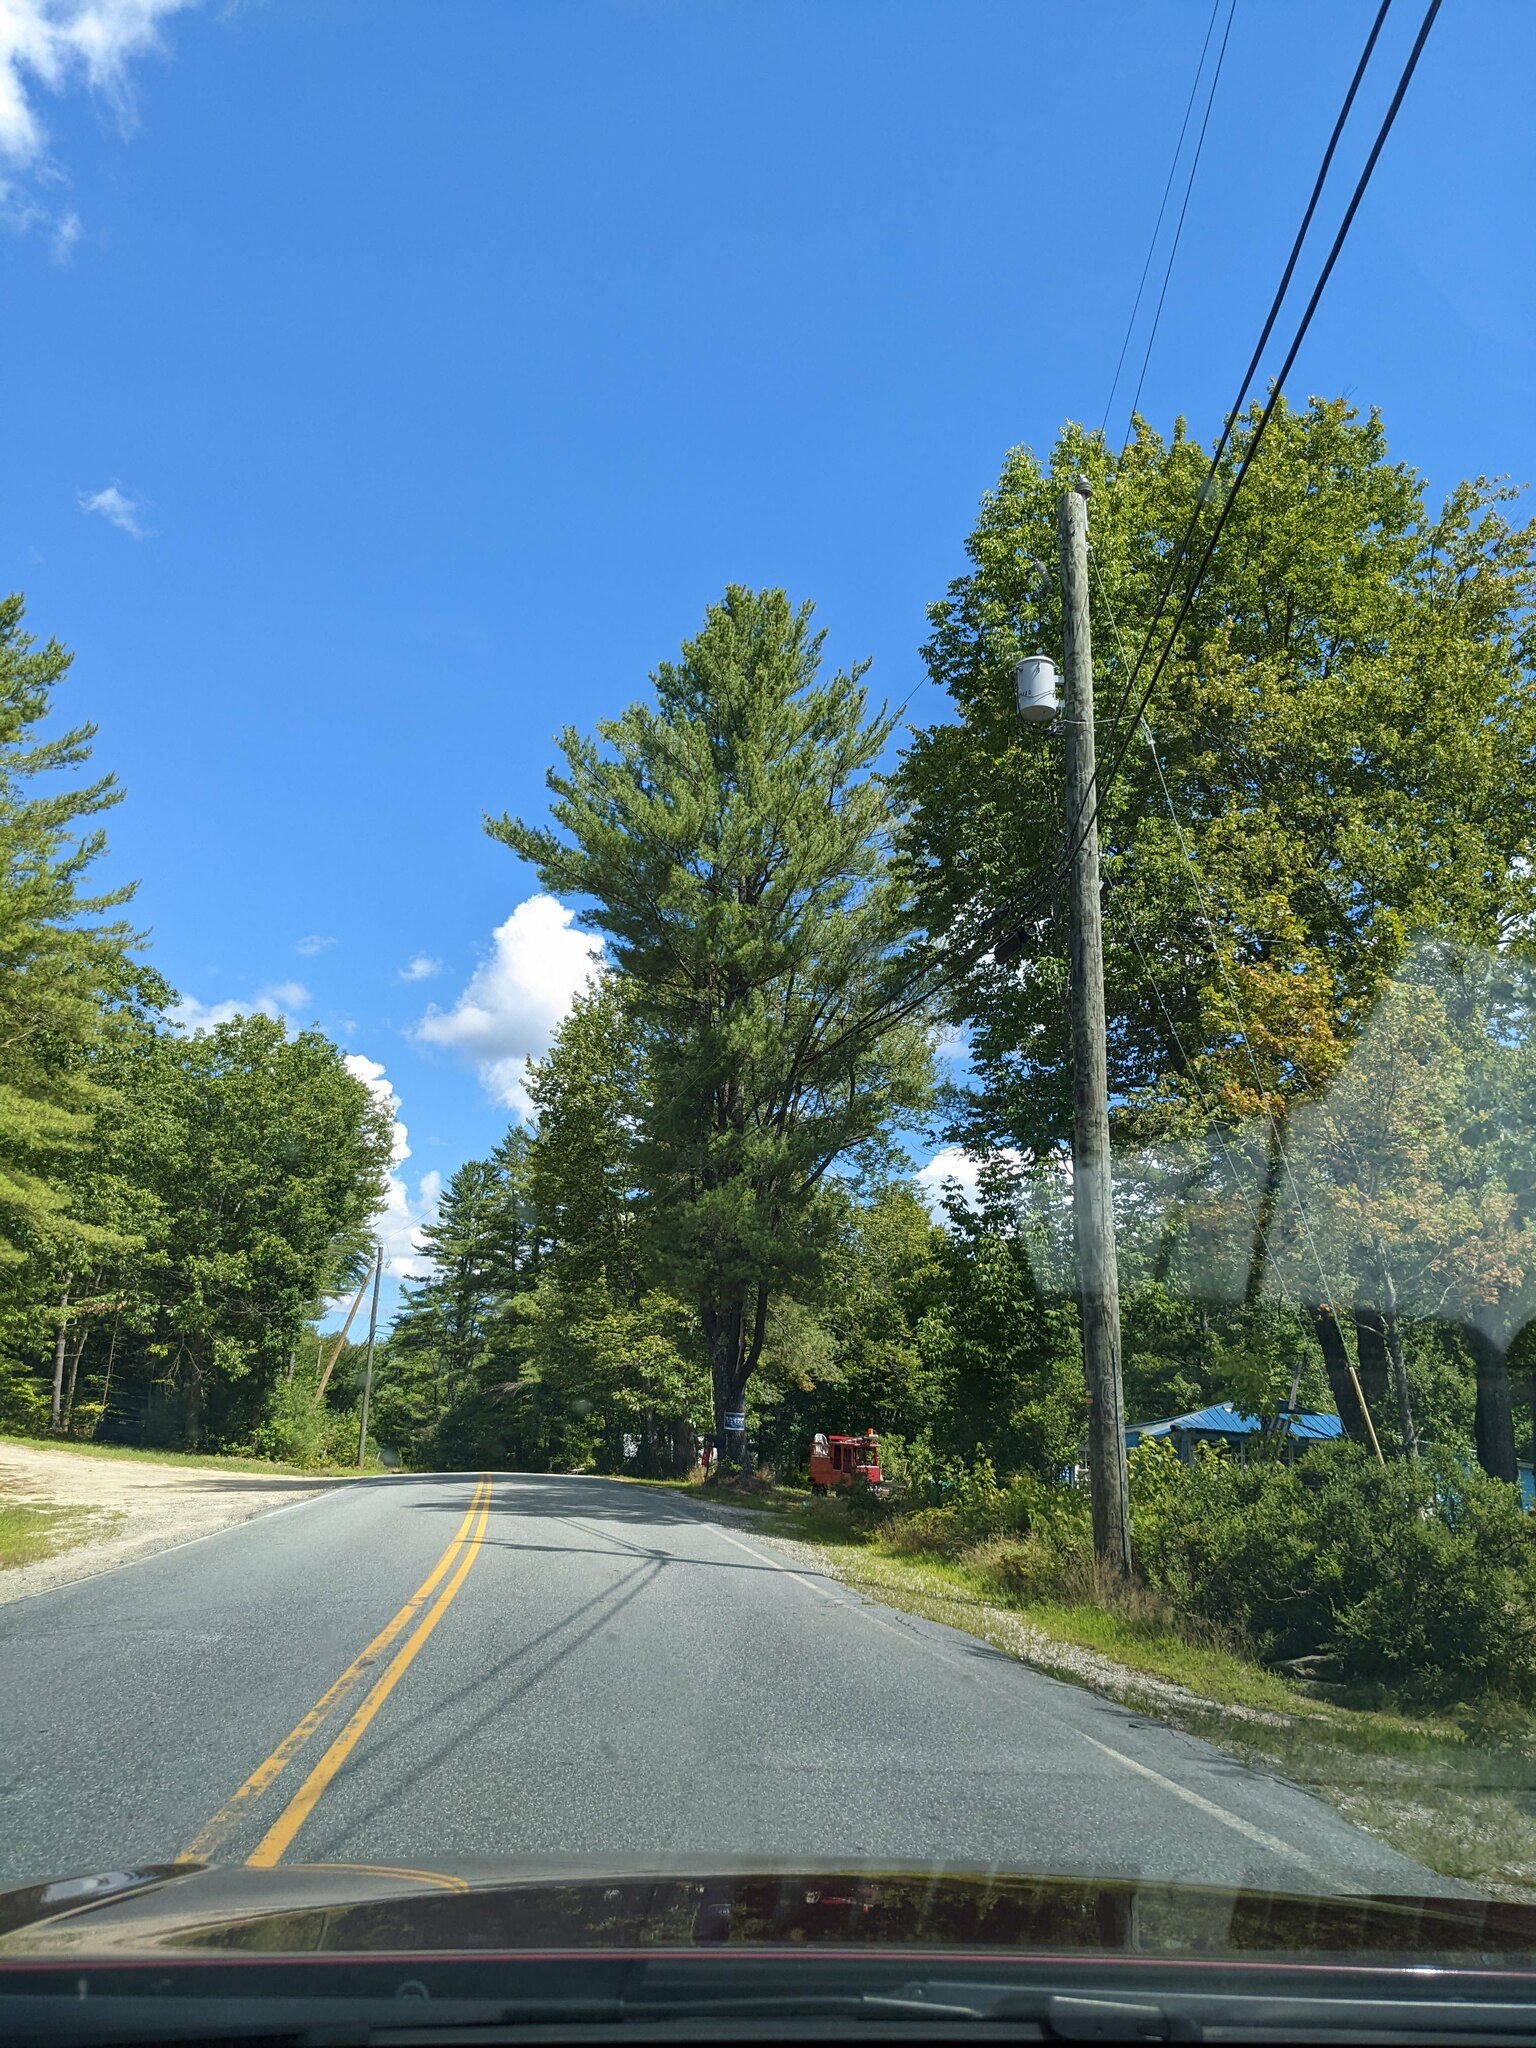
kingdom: Plantae
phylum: Tracheophyta
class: Pinopsida
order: Pinales
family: Pinaceae
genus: Pinus
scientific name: Pinus strobus
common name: Weymouth pine
